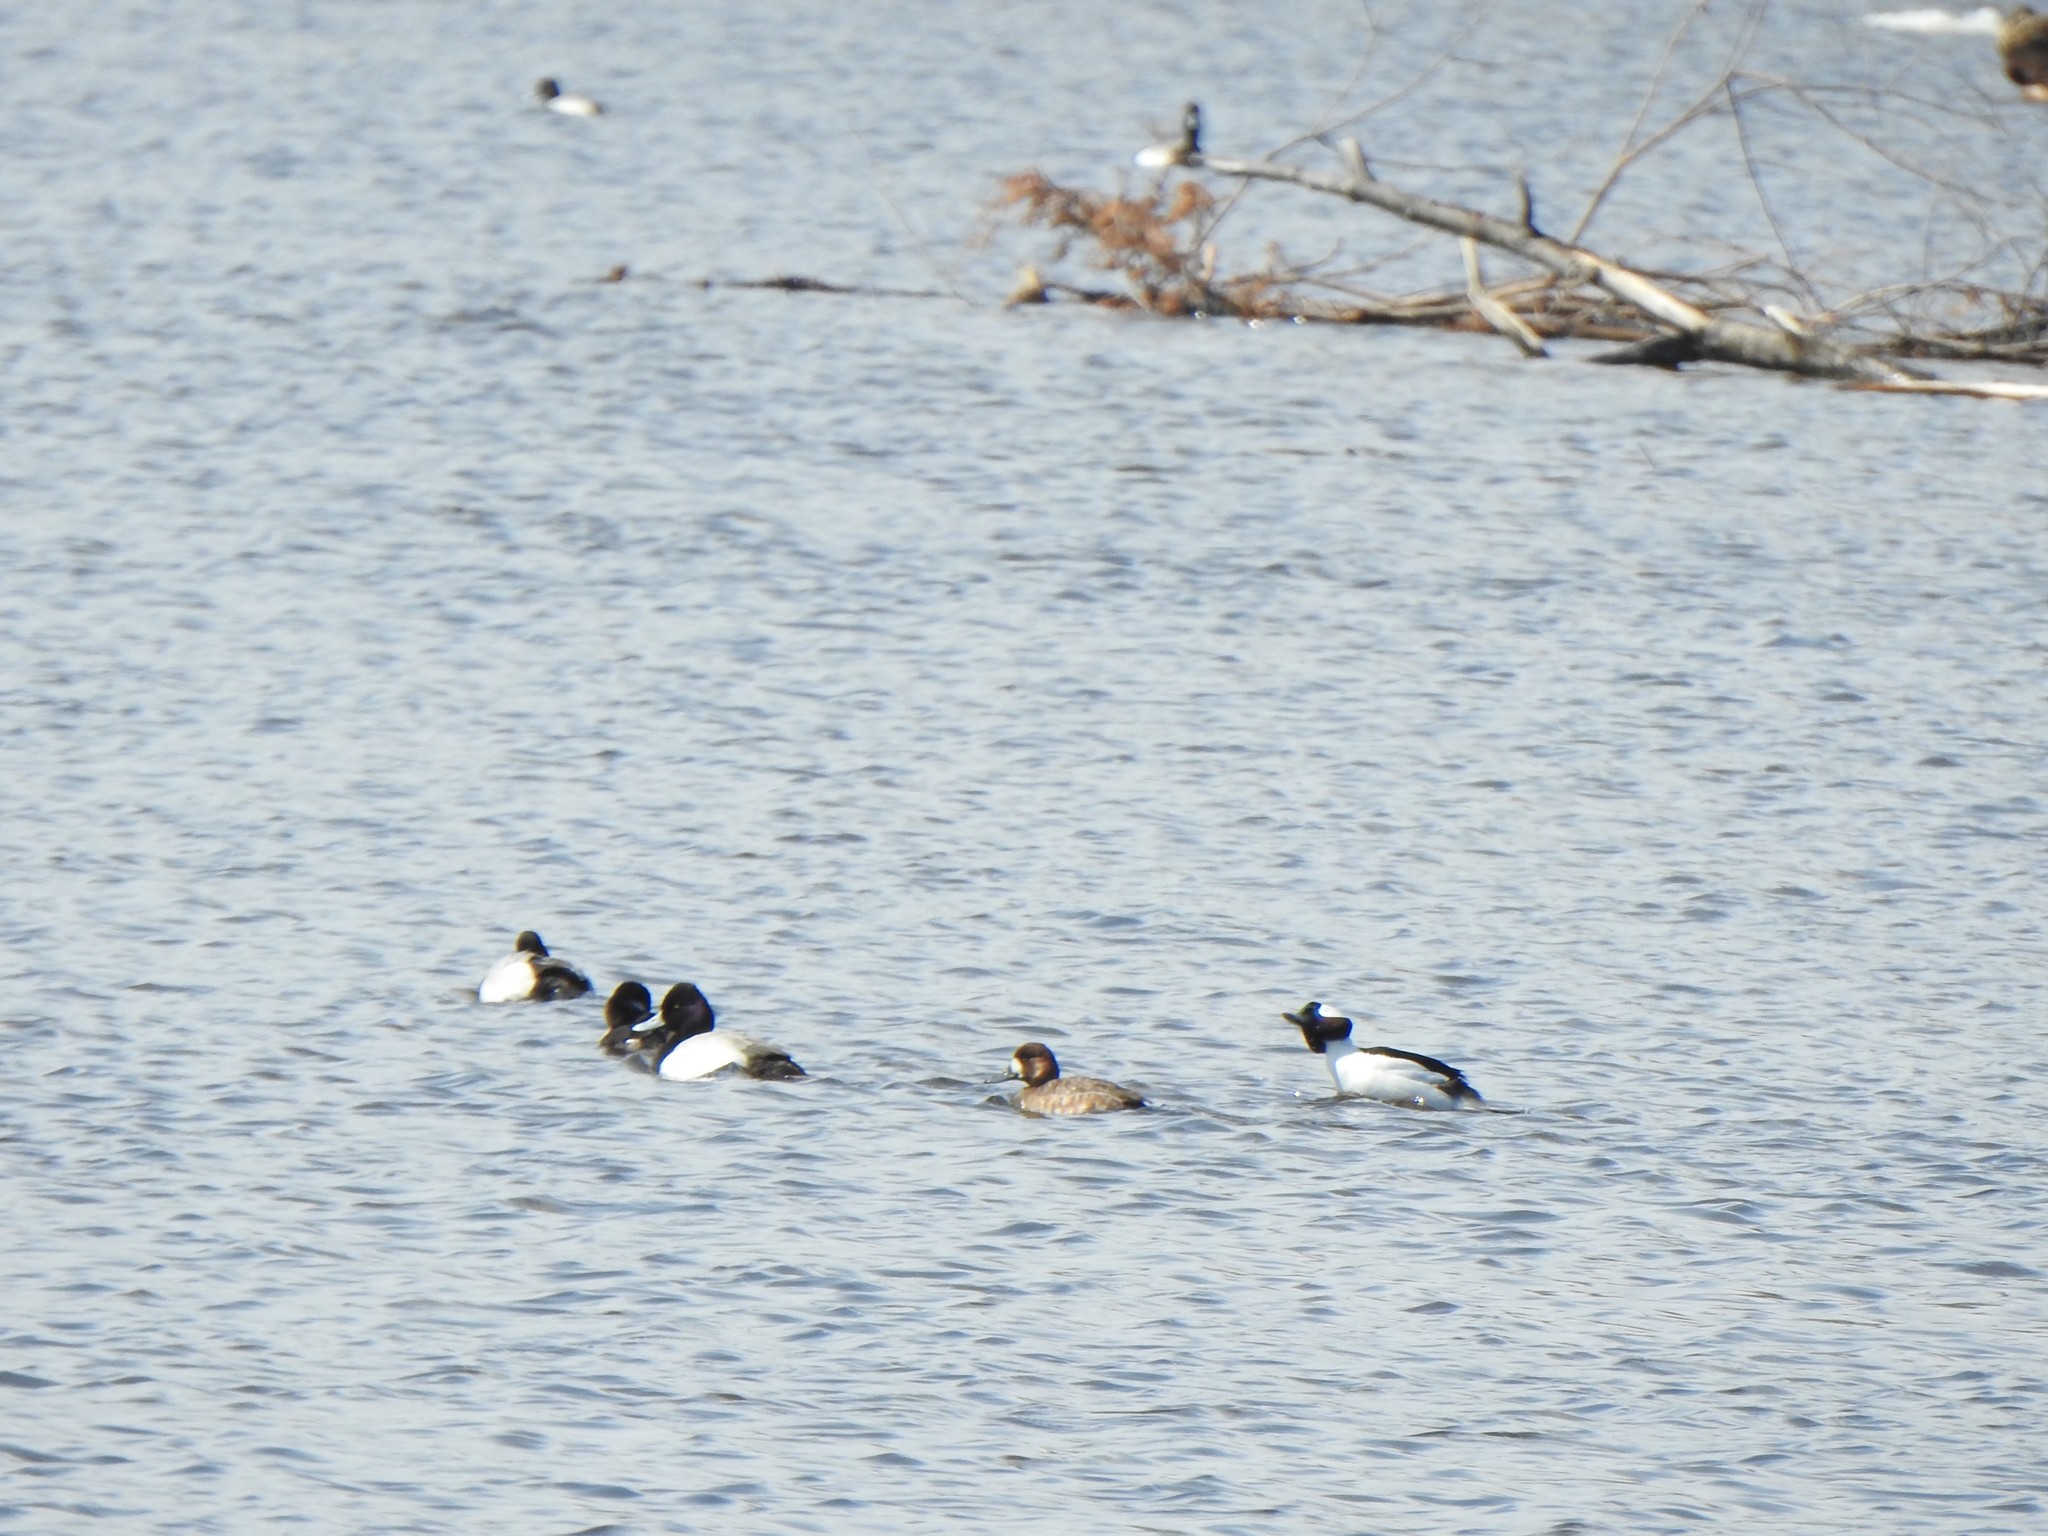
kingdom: Animalia
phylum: Chordata
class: Aves
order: Anseriformes
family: Anatidae
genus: Aythya
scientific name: Aythya affinis
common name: Lesser scaup
